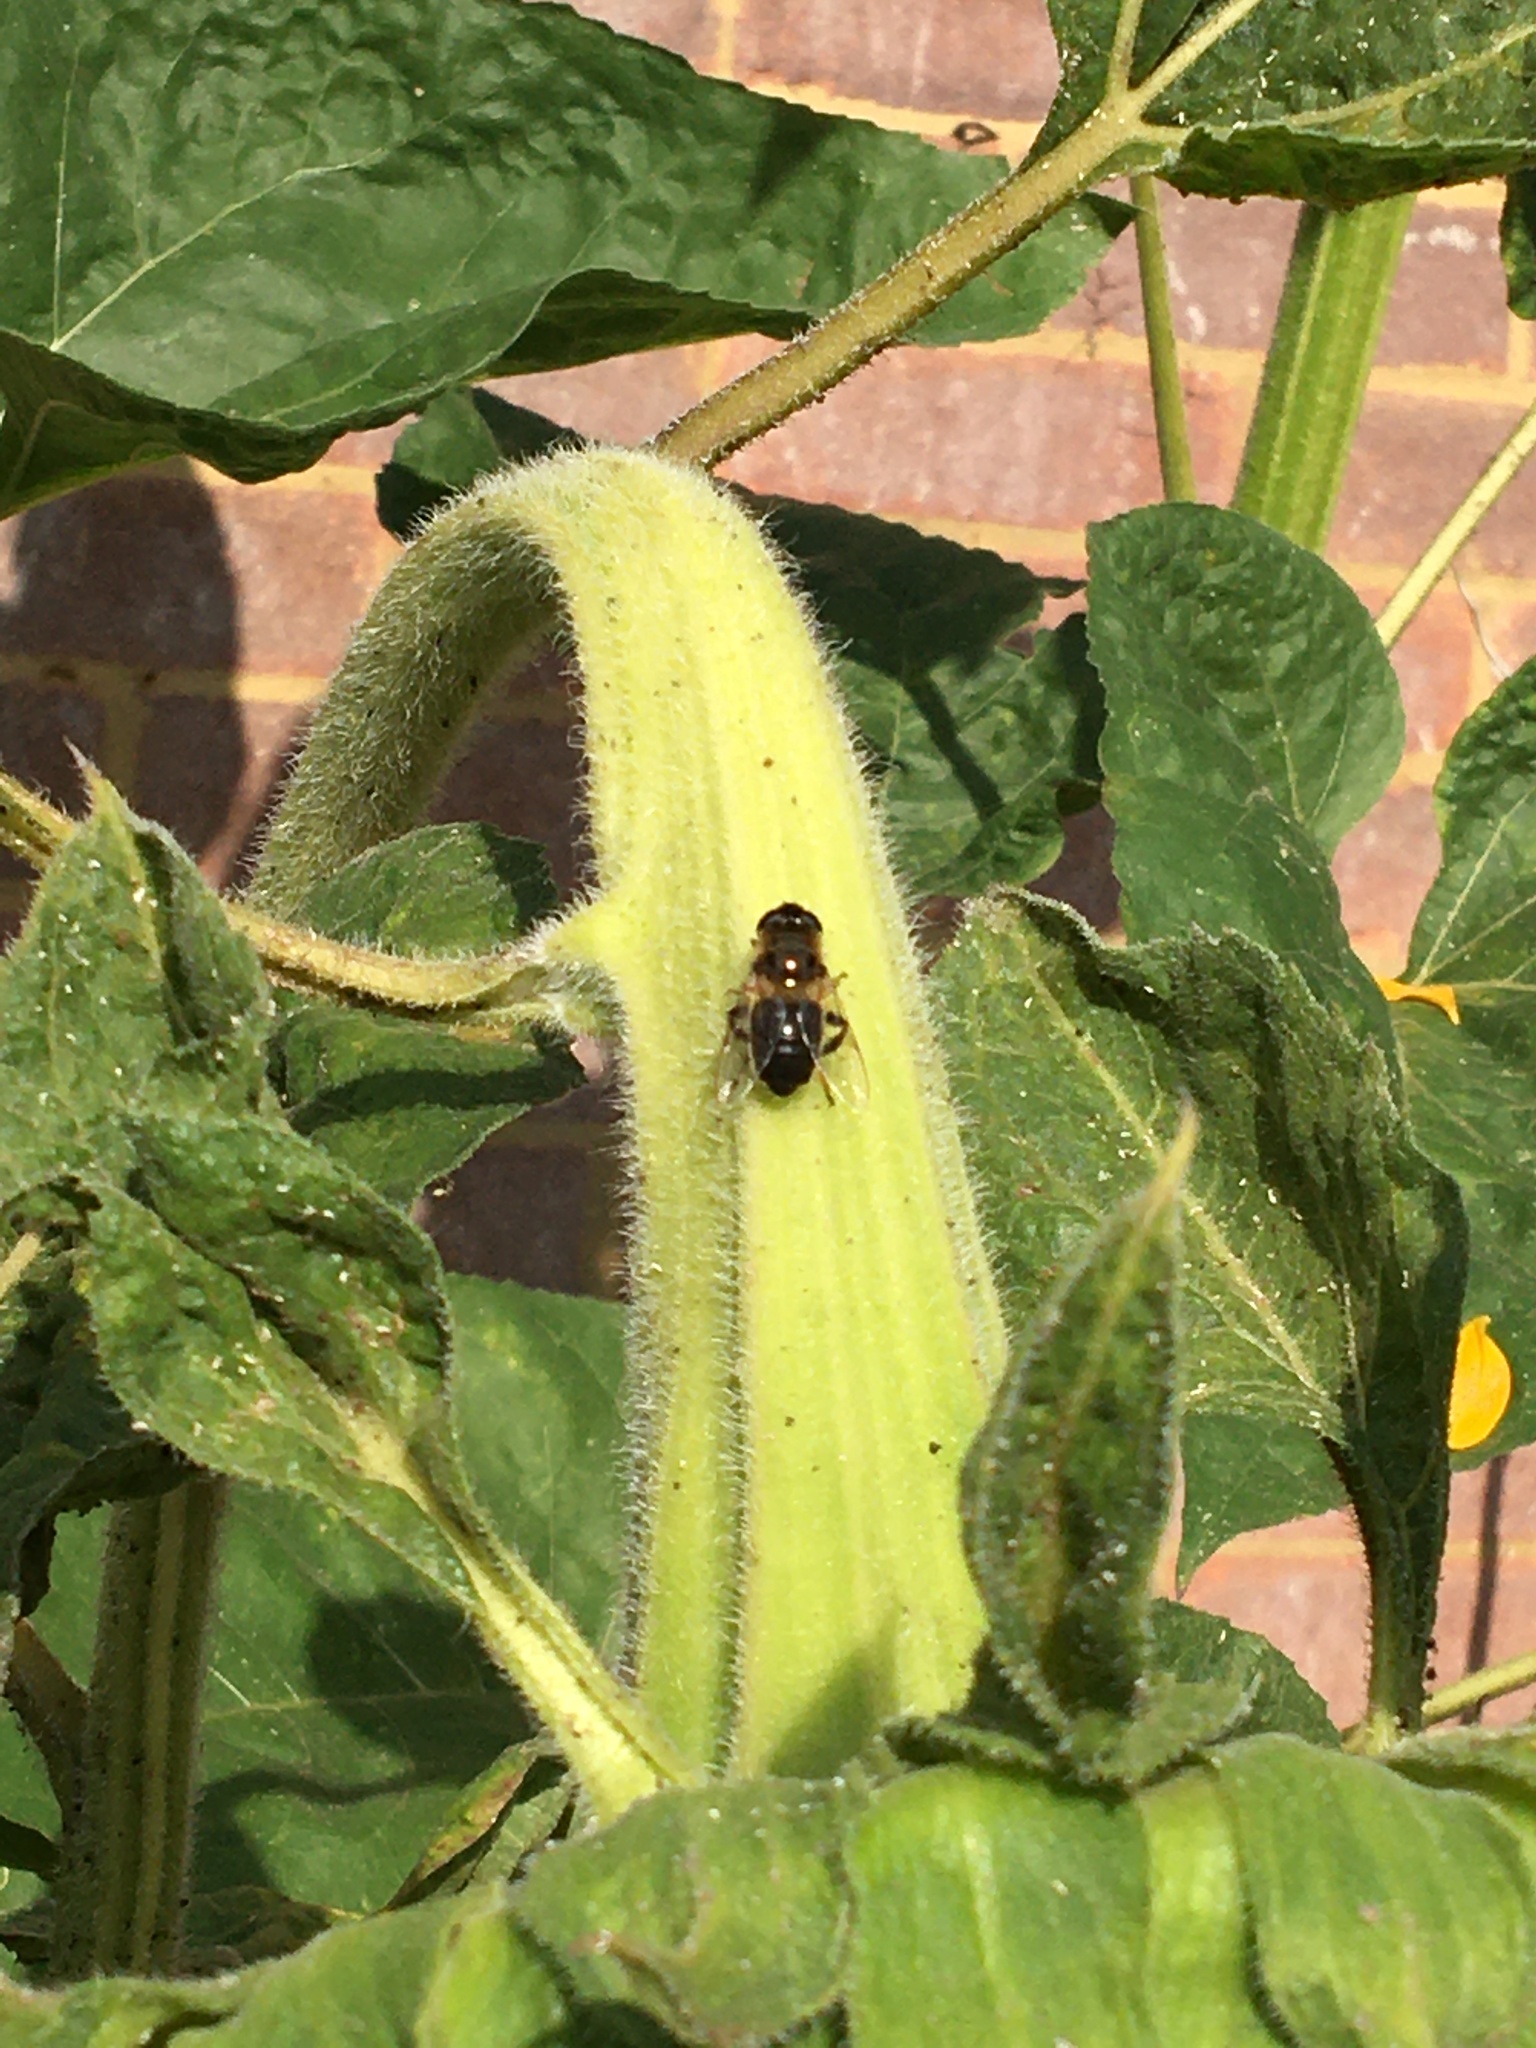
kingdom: Animalia
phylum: Arthropoda
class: Insecta
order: Diptera
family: Syrphidae
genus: Eristalis
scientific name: Eristalis tenax
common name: Drone fly
